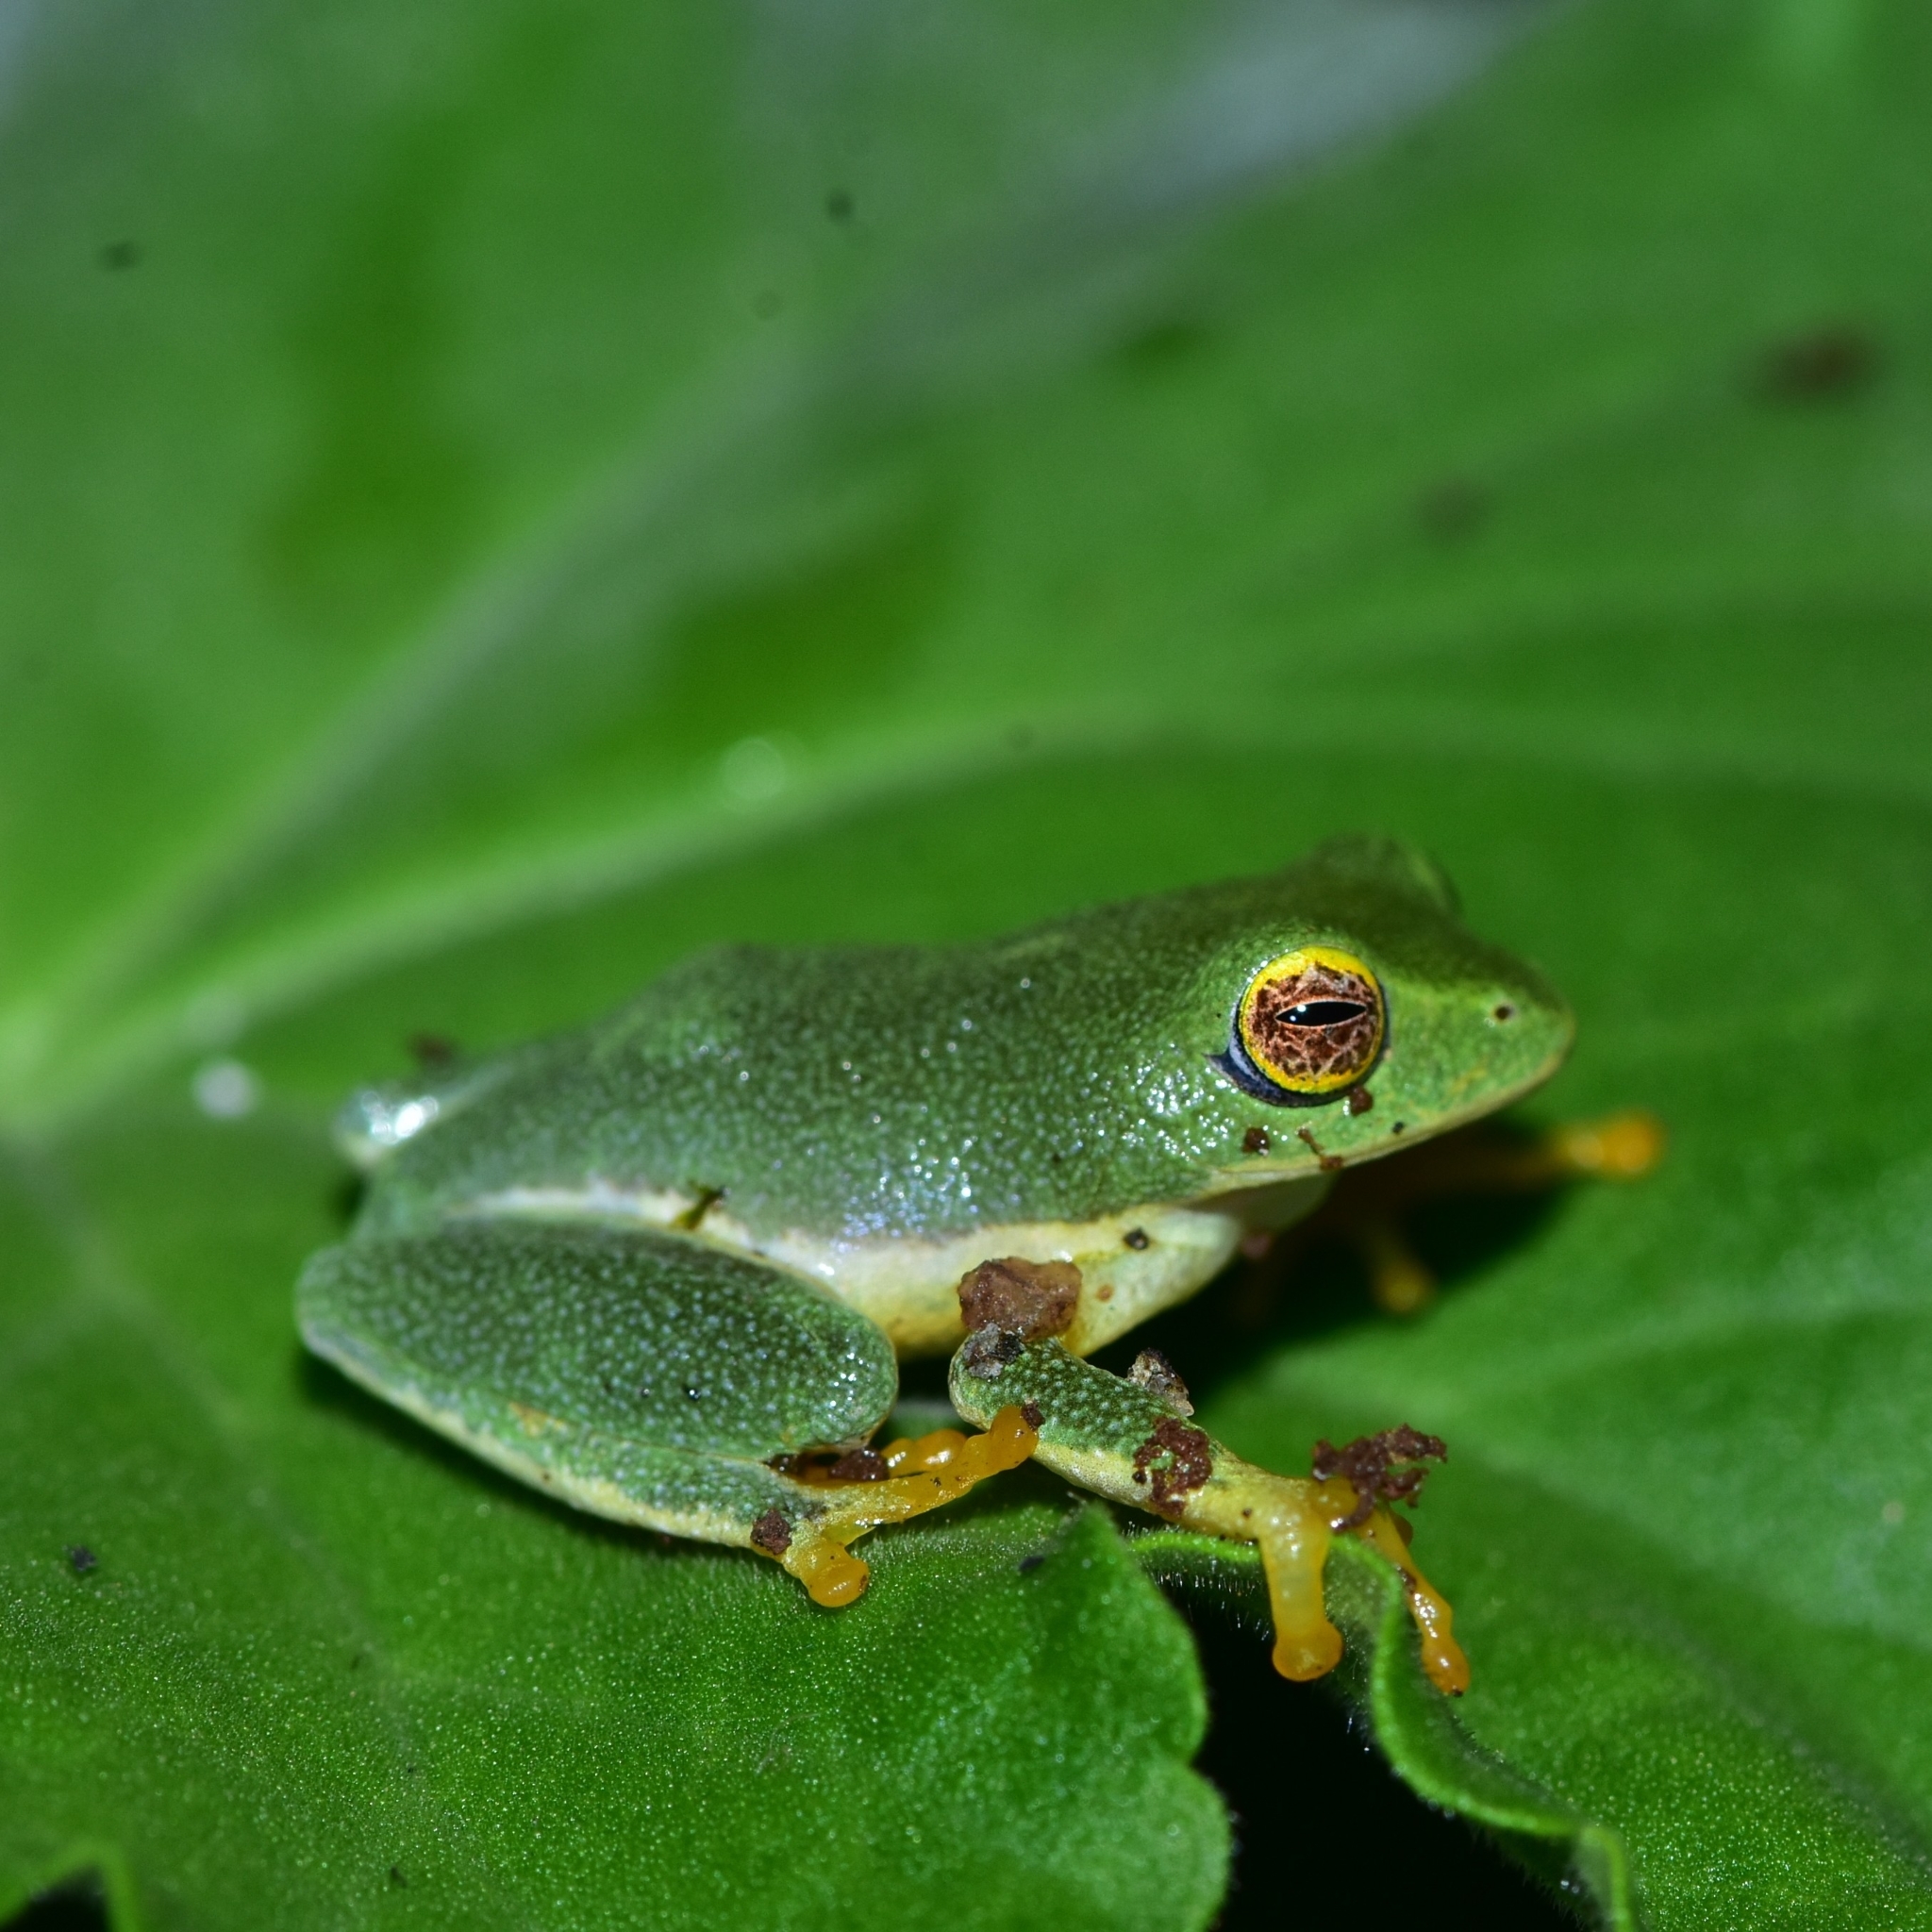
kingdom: Animalia
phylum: Chordata
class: Amphibia
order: Anura
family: Rhacophoridae
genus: Raorchestes
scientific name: Raorchestes jayarami
